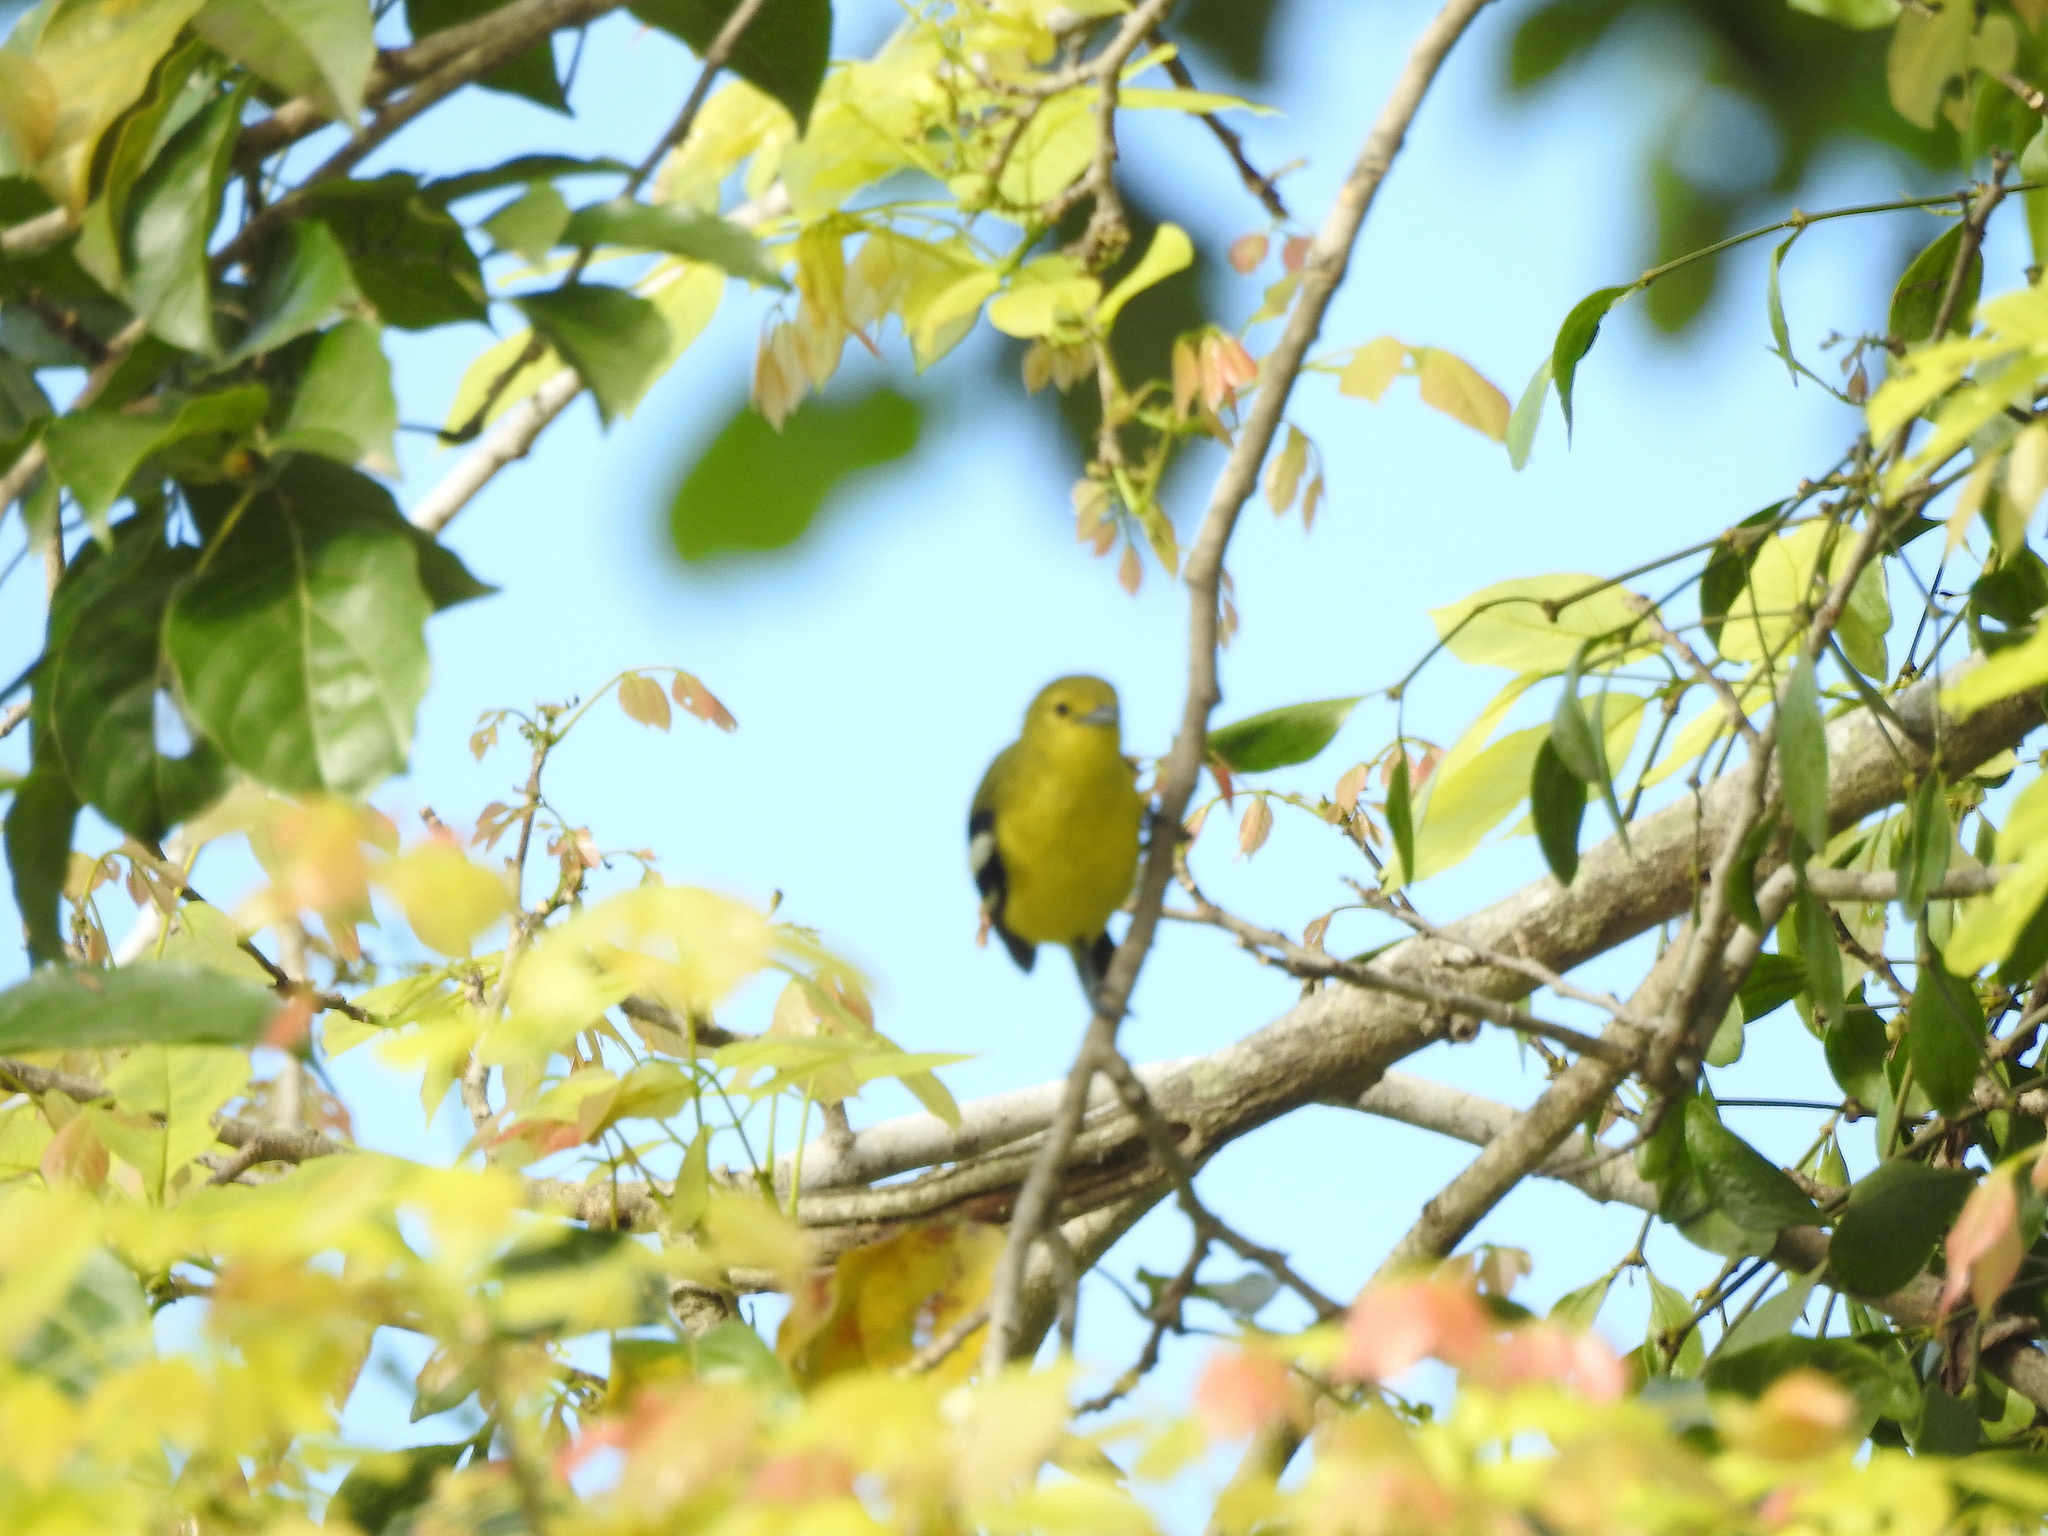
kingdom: Animalia
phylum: Chordata
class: Aves
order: Passeriformes
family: Aegithinidae
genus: Aegithina
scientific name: Aegithina tiphia
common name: Common iora
